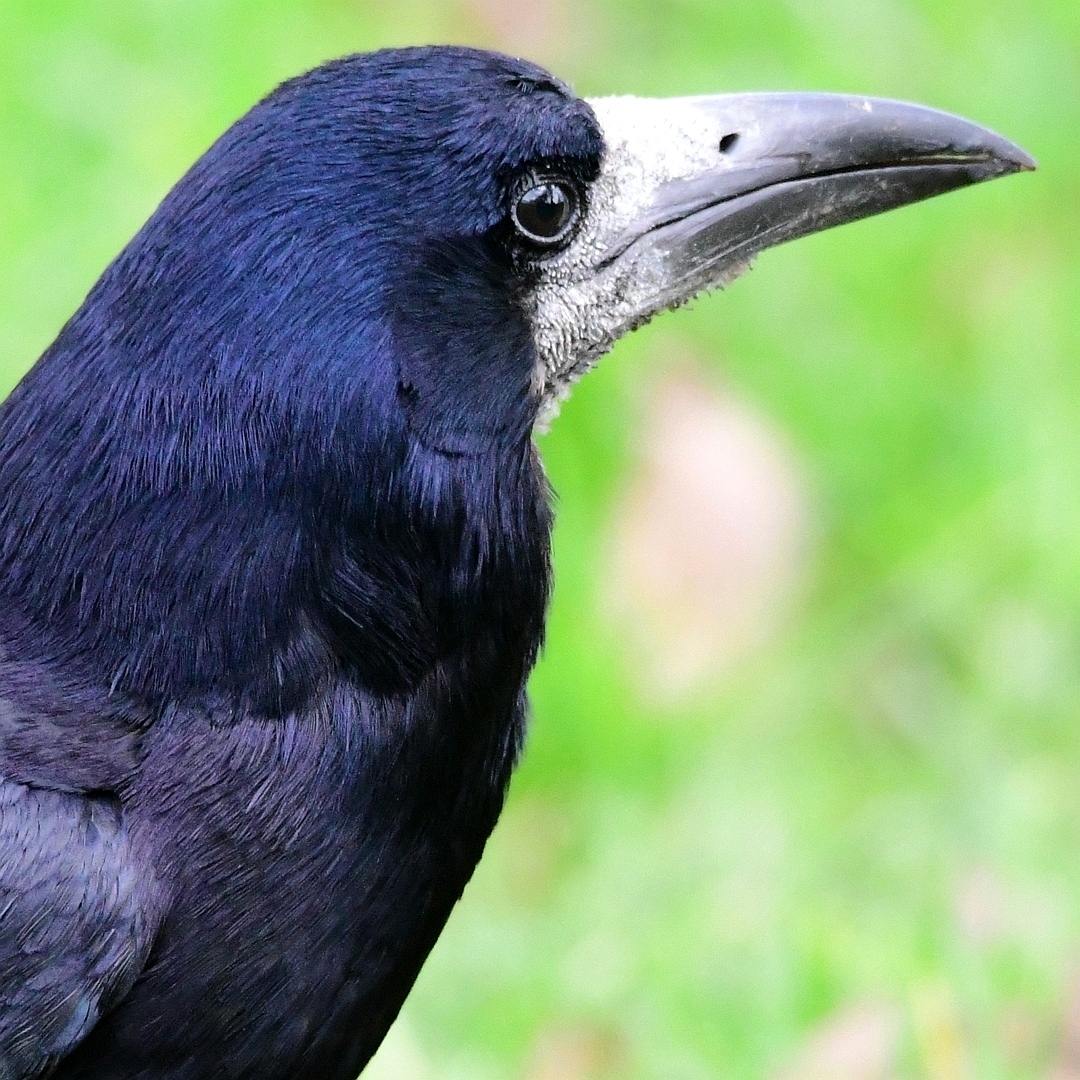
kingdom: Animalia
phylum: Chordata
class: Aves
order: Passeriformes
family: Corvidae
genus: Corvus
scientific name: Corvus frugilegus
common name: Rook
